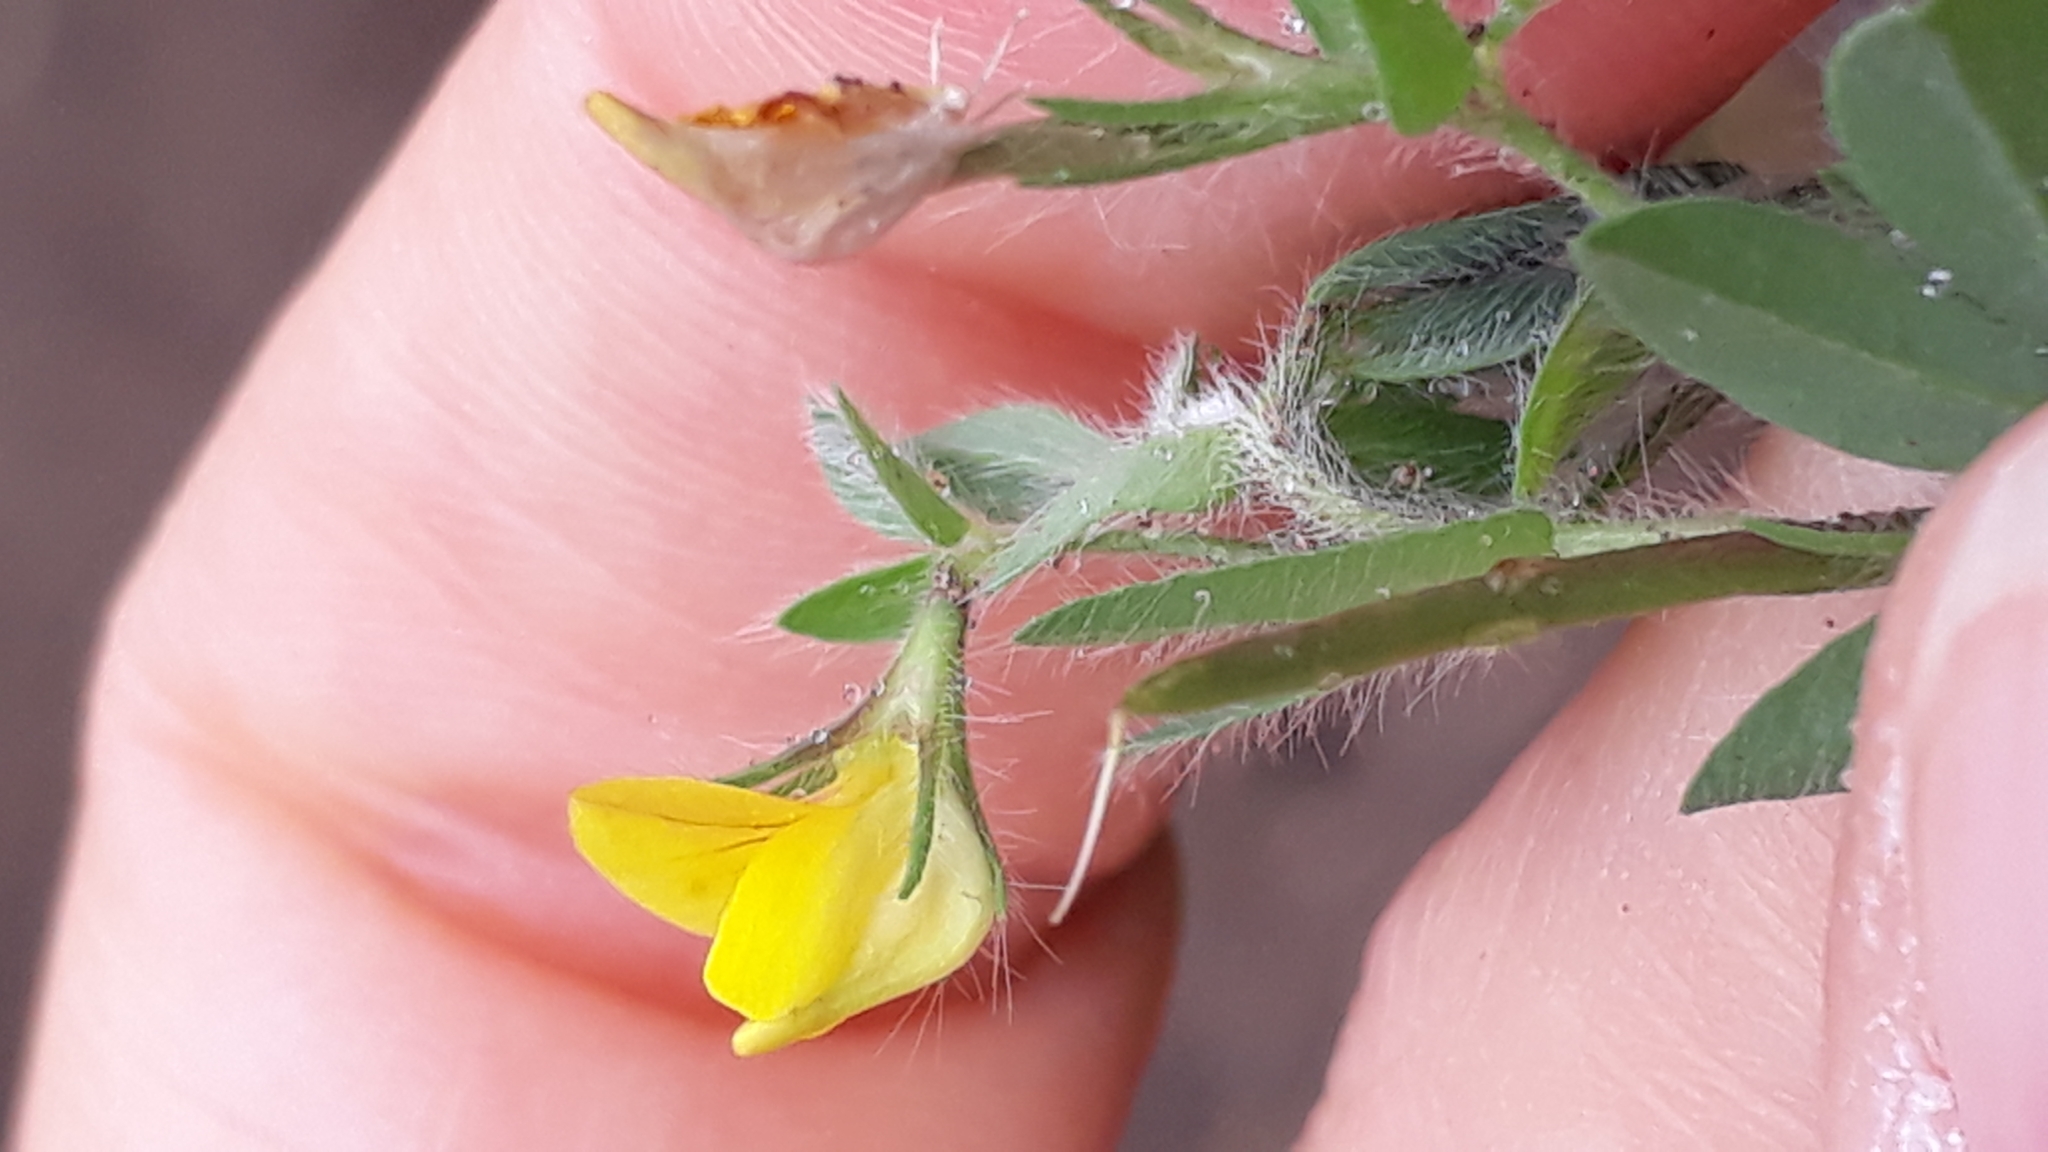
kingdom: Plantae
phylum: Tracheophyta
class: Magnoliopsida
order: Fabales
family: Fabaceae
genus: Lotus
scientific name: Lotus angustissimus
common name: Slender bird's-foot trefoil
